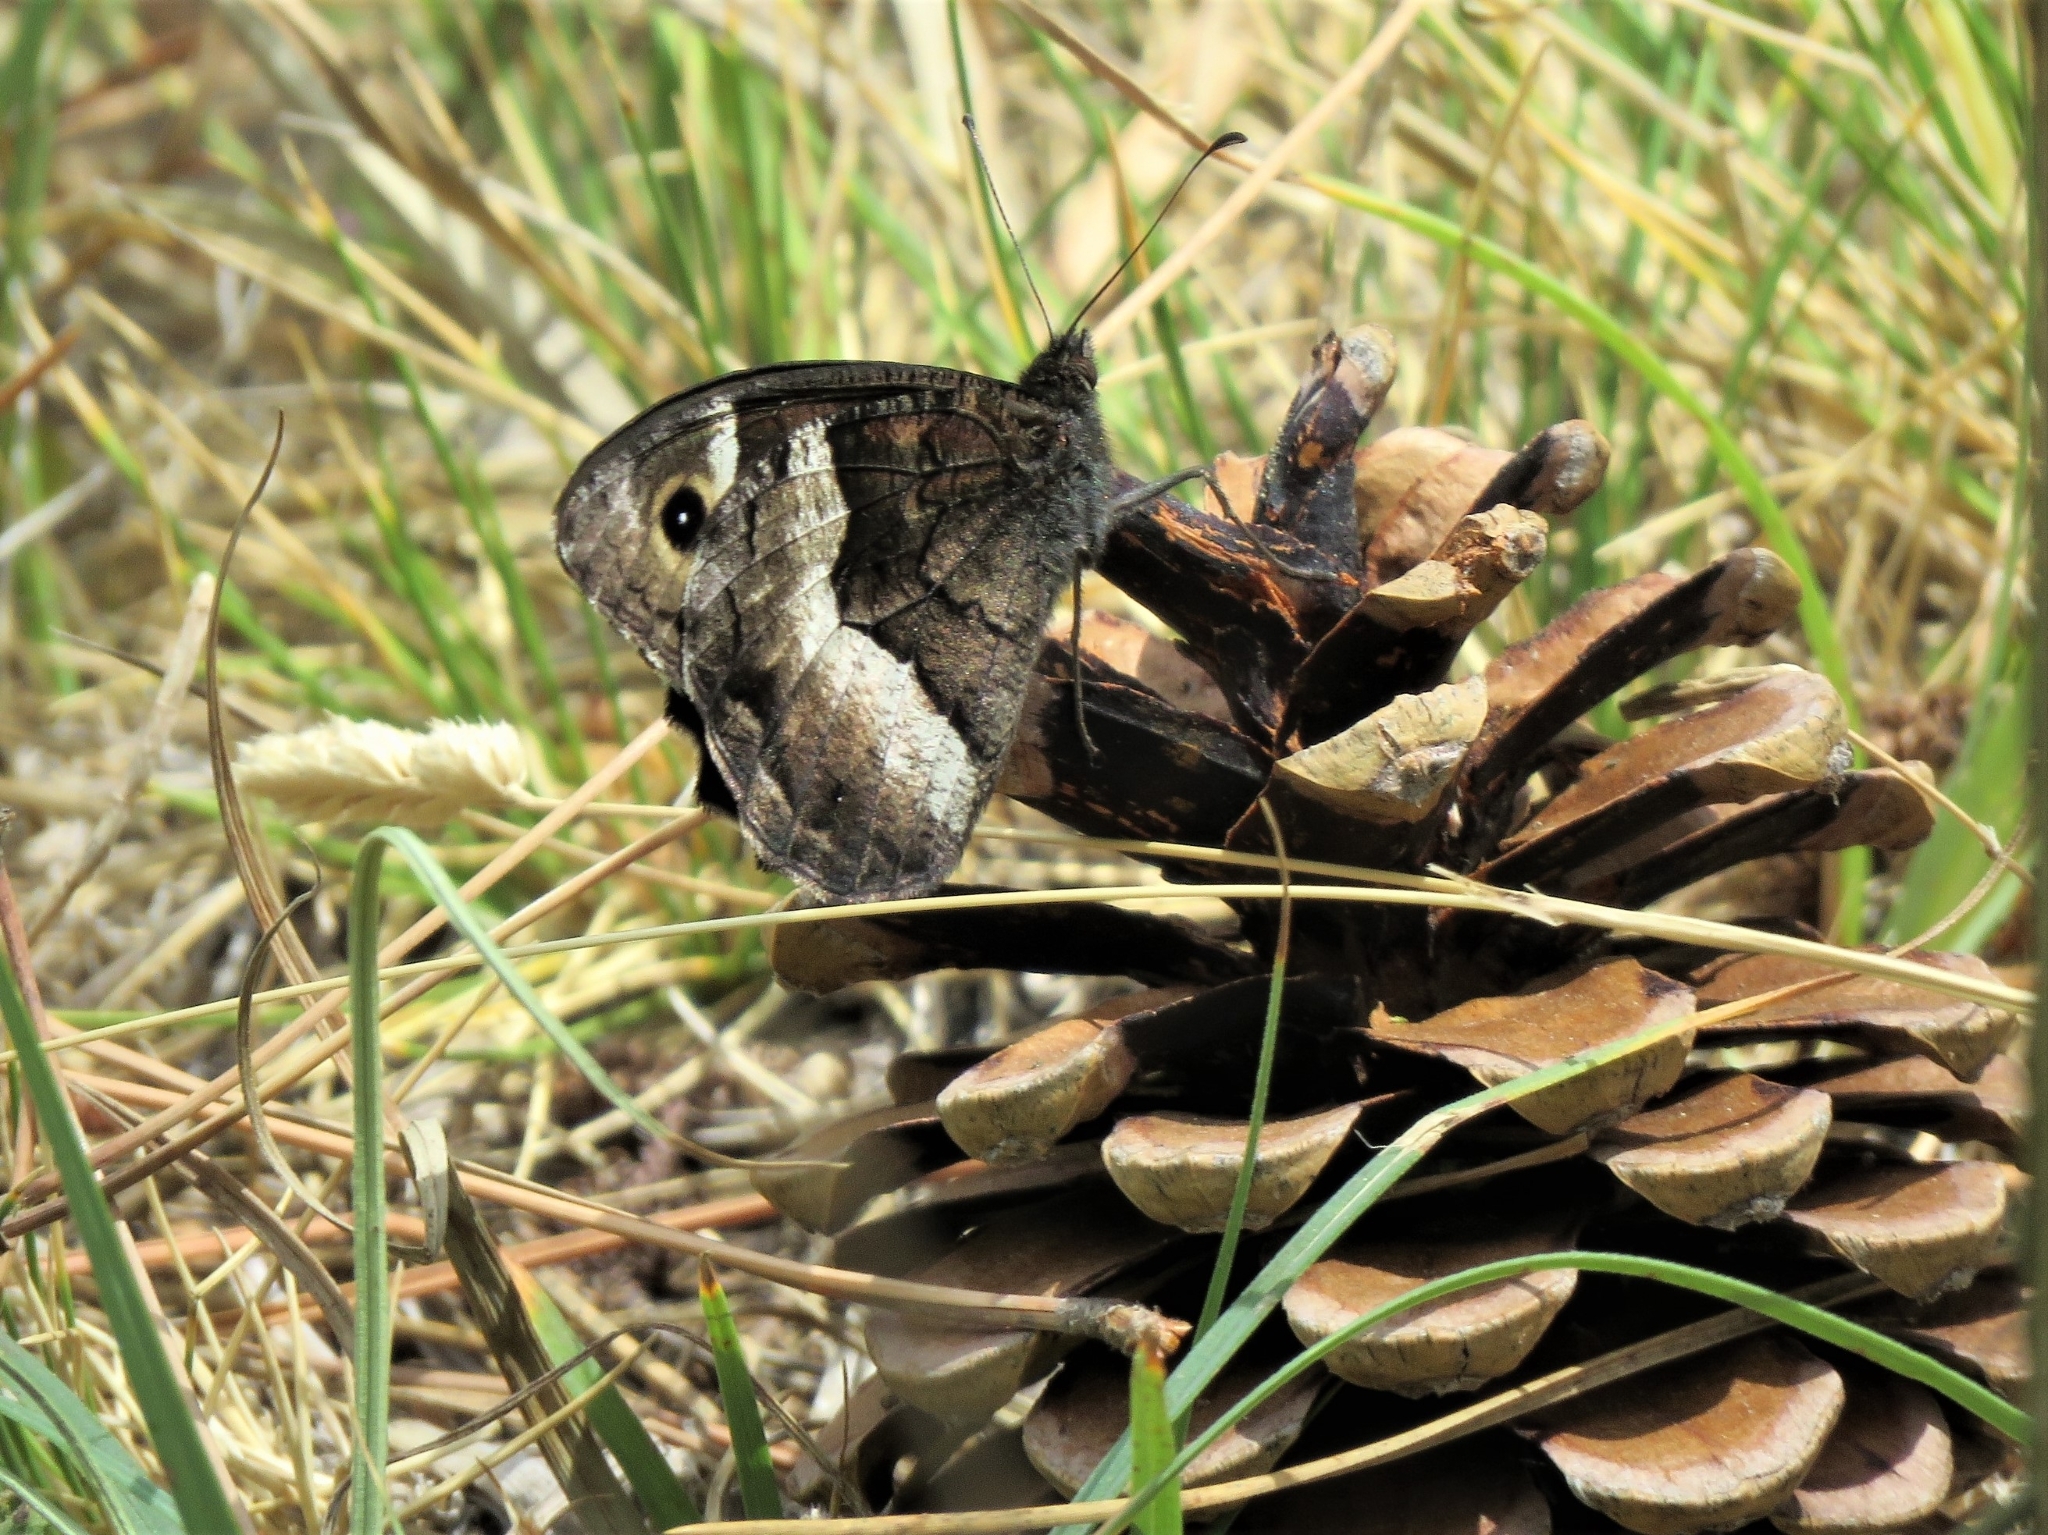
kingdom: Animalia
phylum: Arthropoda
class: Insecta
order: Lepidoptera
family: Nymphalidae
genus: Hipparchia
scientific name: Hipparchia hermione
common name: Rock grayling
